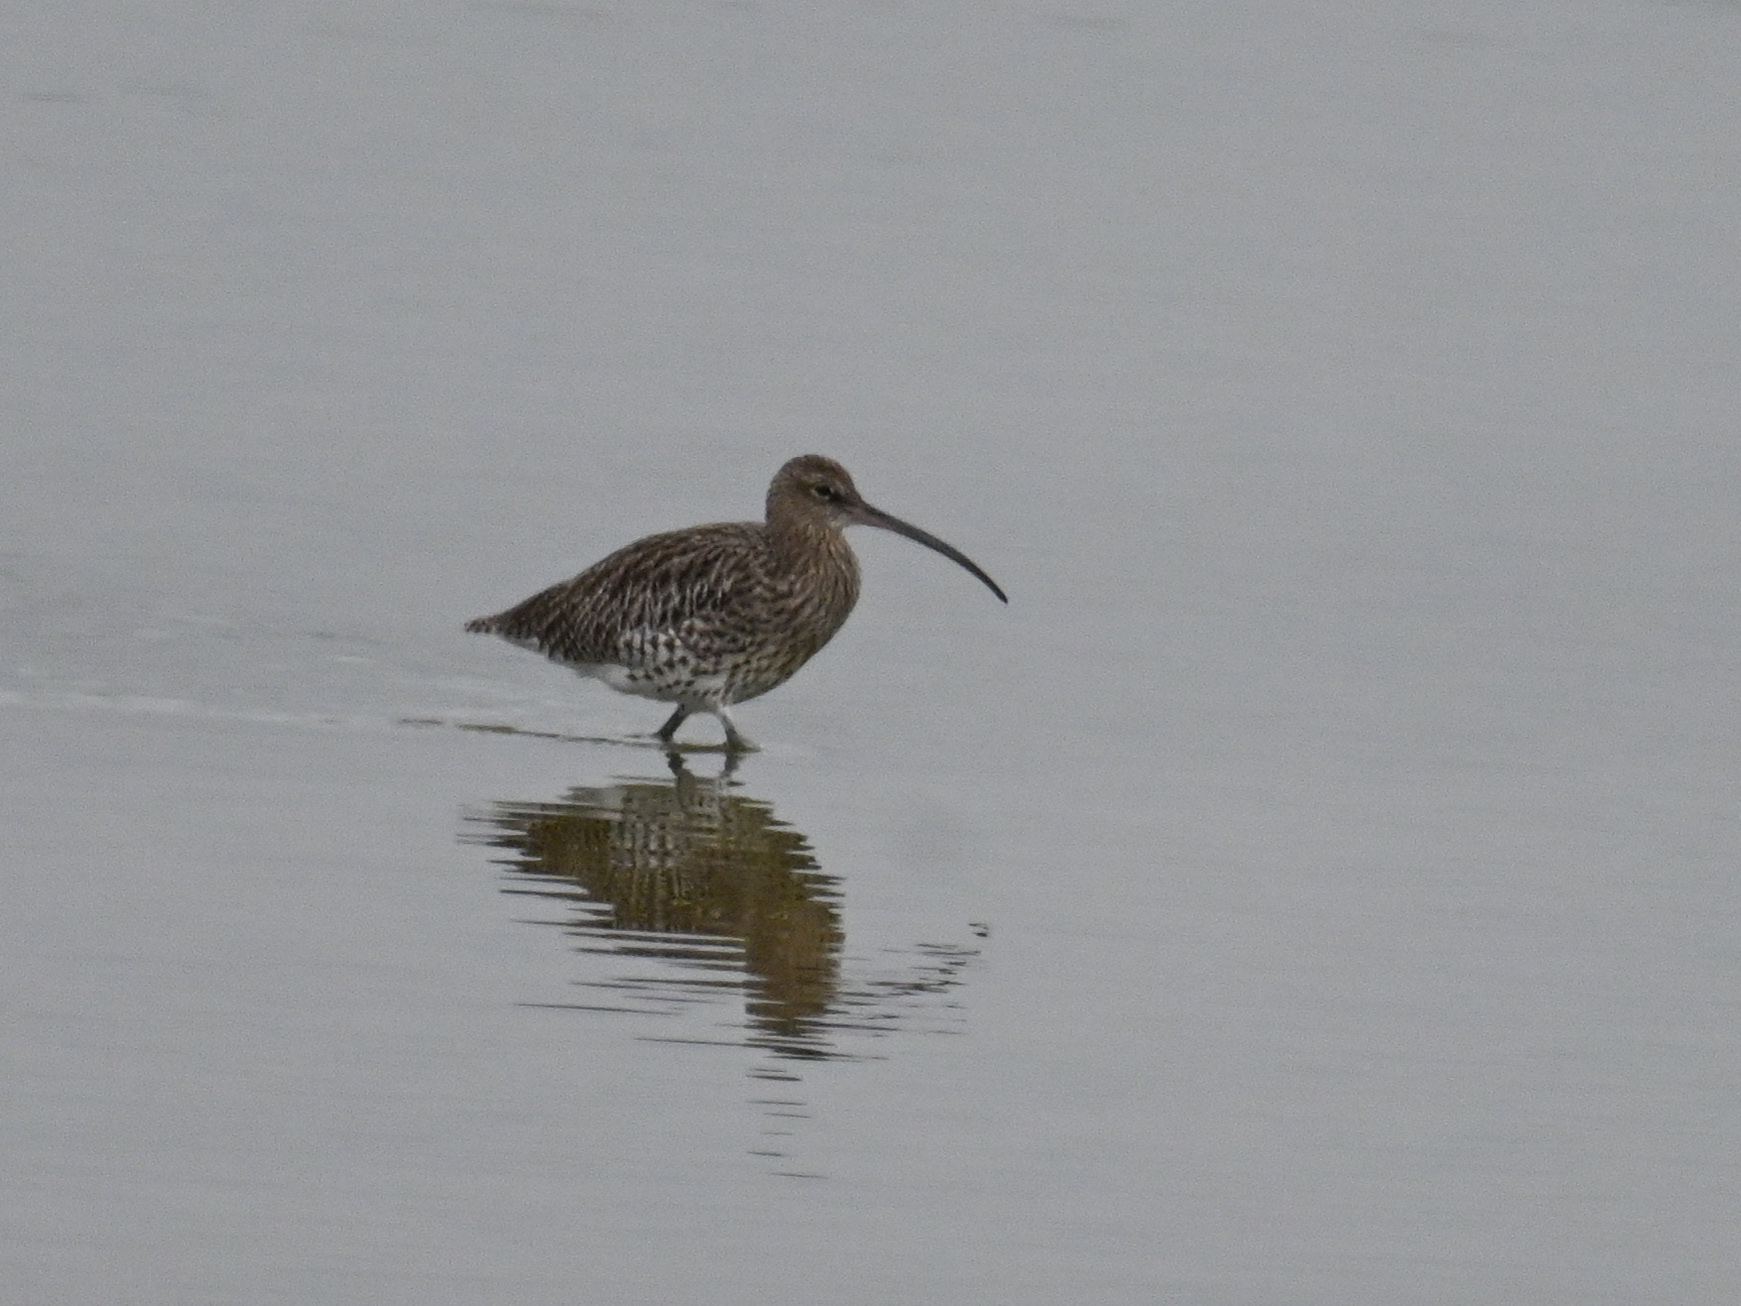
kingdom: Animalia
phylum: Chordata
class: Aves
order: Charadriiformes
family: Scolopacidae
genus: Numenius
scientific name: Numenius arquata
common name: Eurasian curlew
